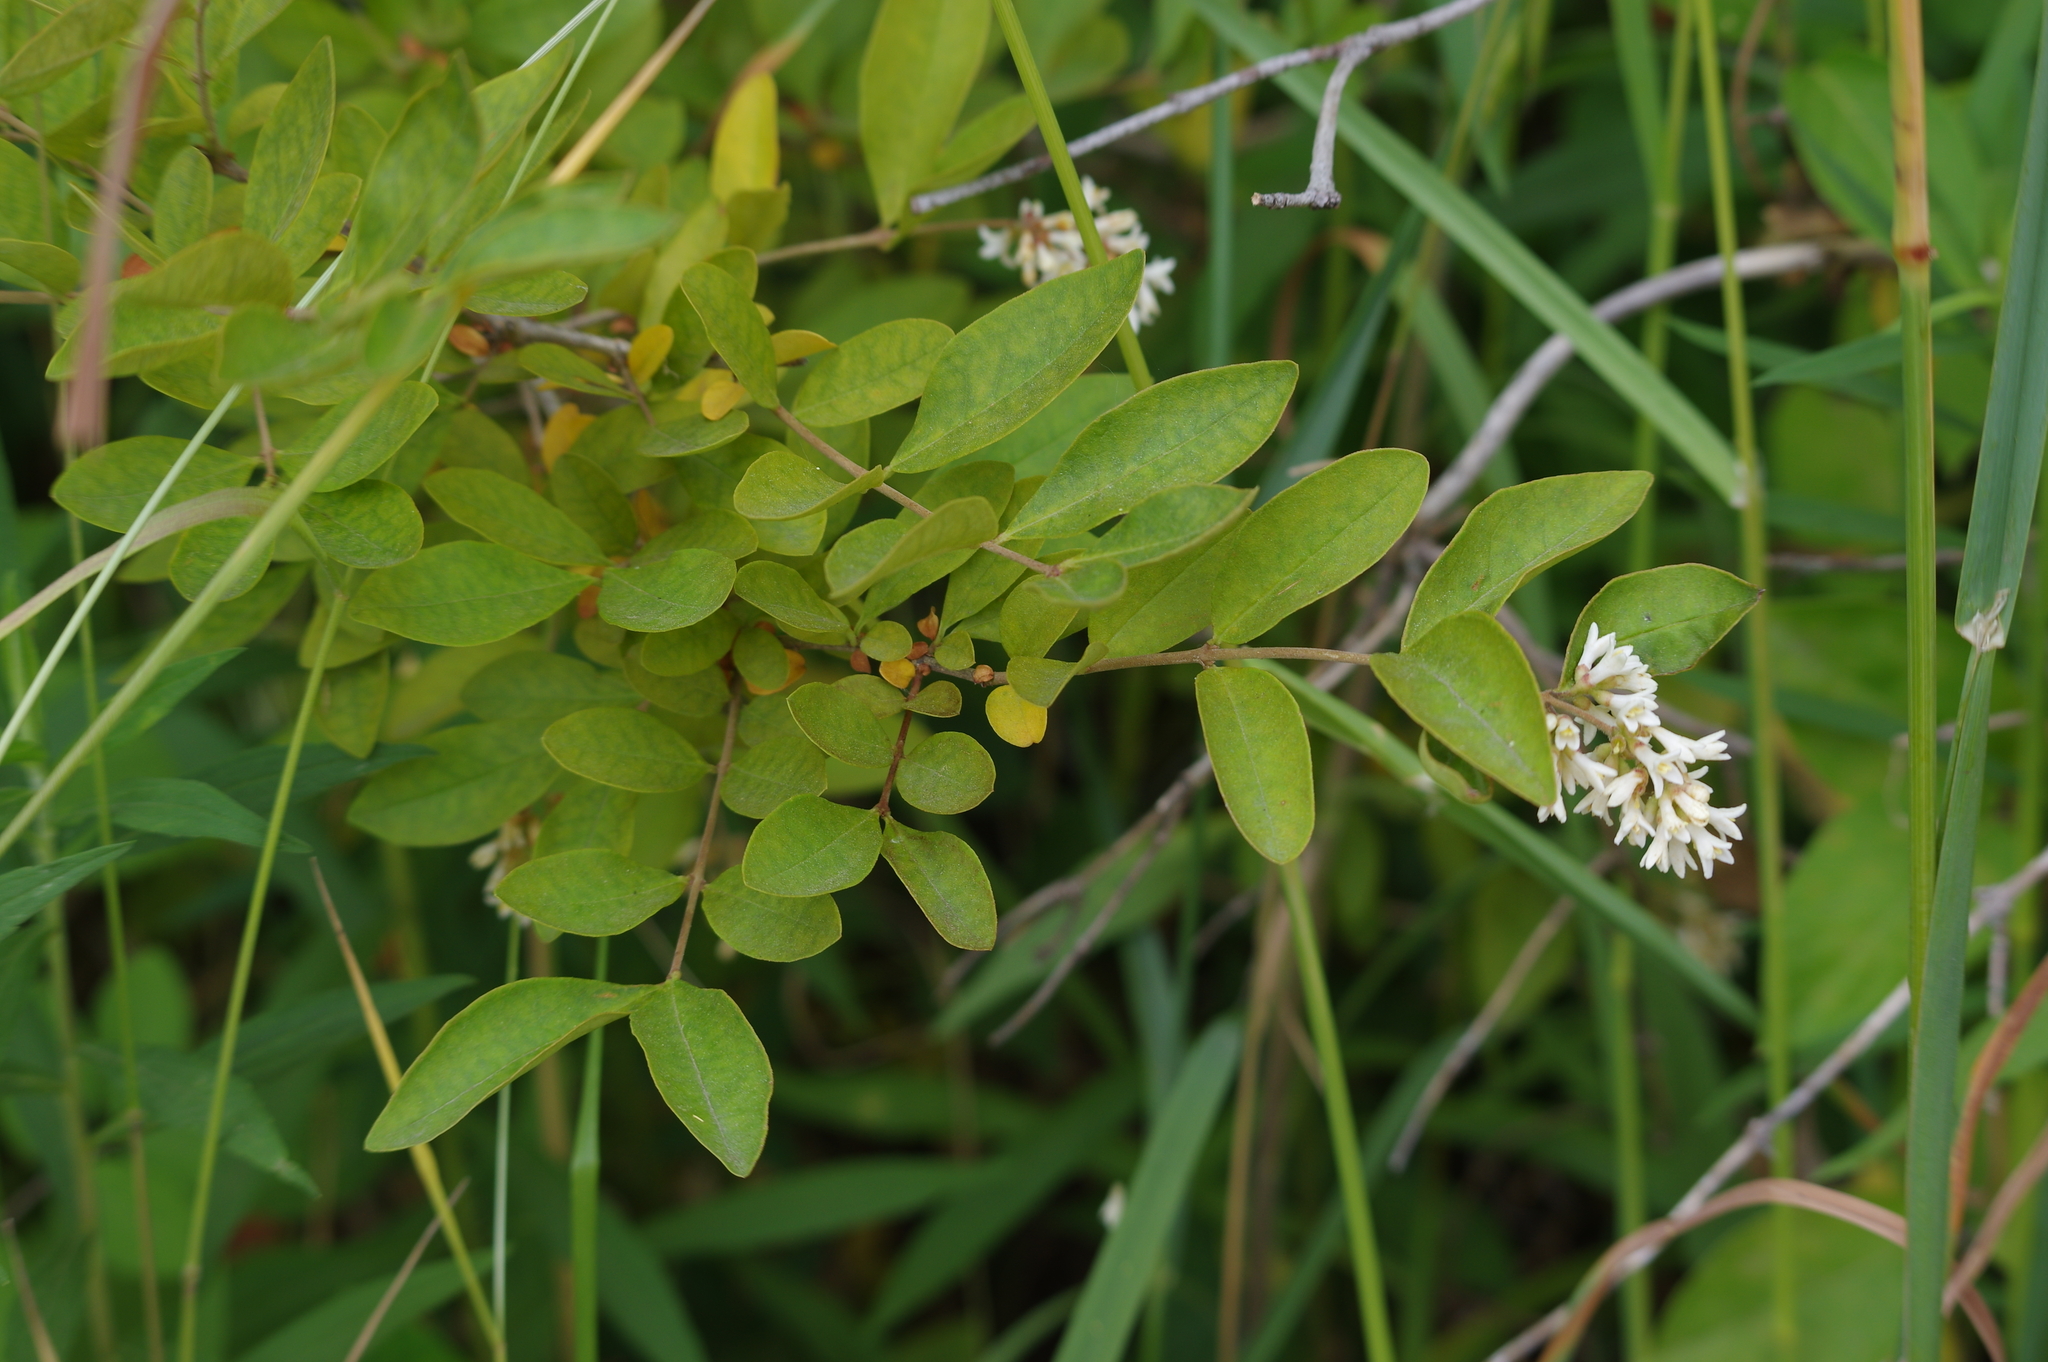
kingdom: Plantae
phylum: Tracheophyta
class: Magnoliopsida
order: Lamiales
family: Oleaceae
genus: Ligustrum
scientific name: Ligustrum obtusifolium
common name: Border privet
